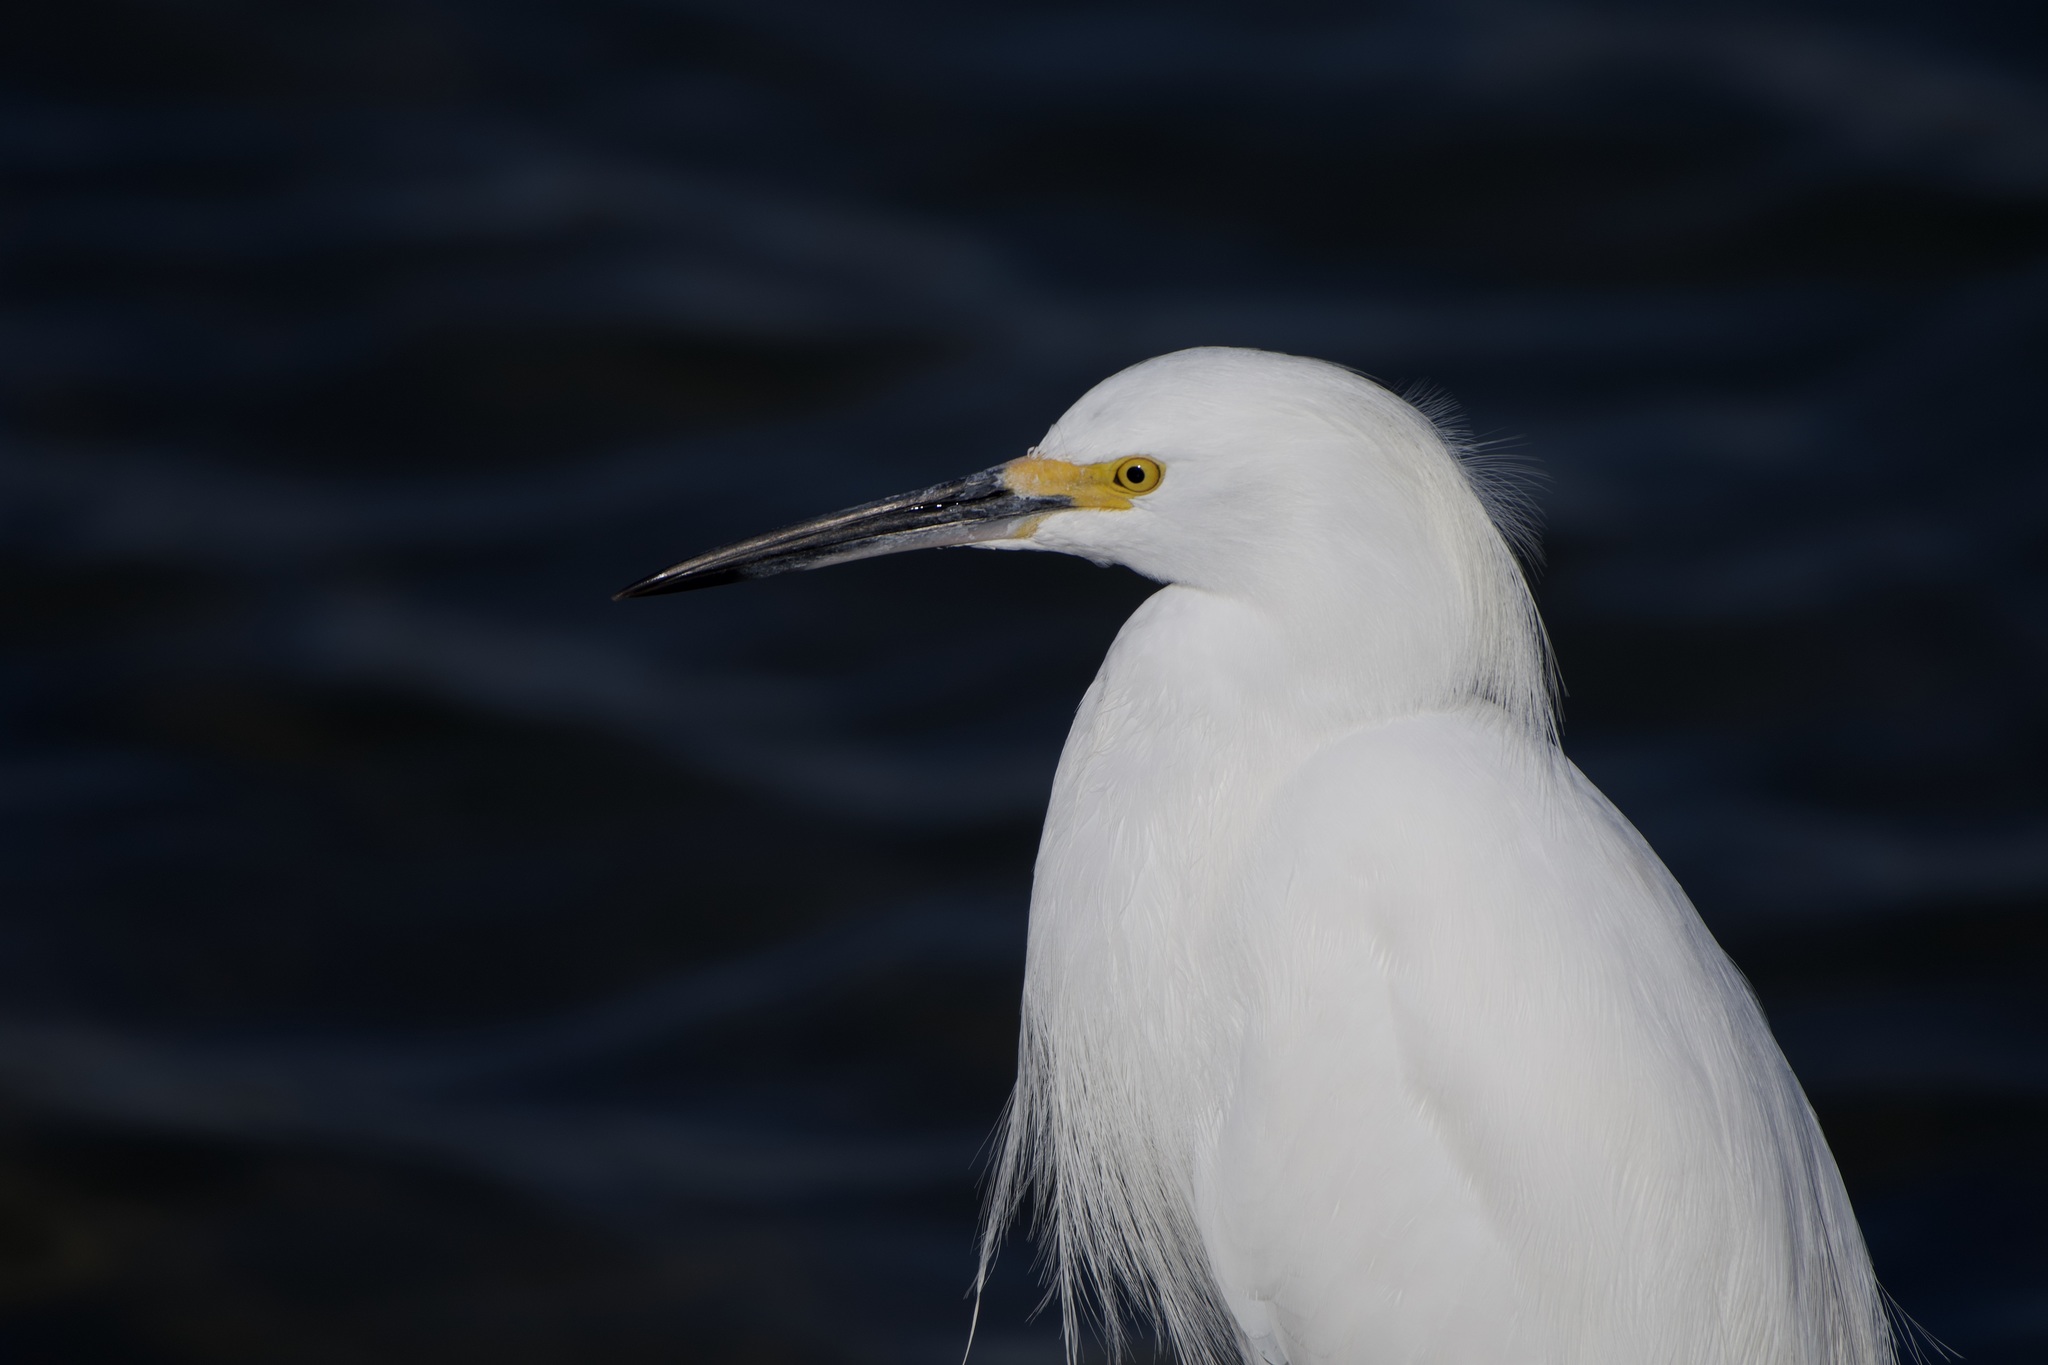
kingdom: Animalia
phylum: Chordata
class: Aves
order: Pelecaniformes
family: Ardeidae
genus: Egretta
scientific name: Egretta thula
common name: Snowy egret
